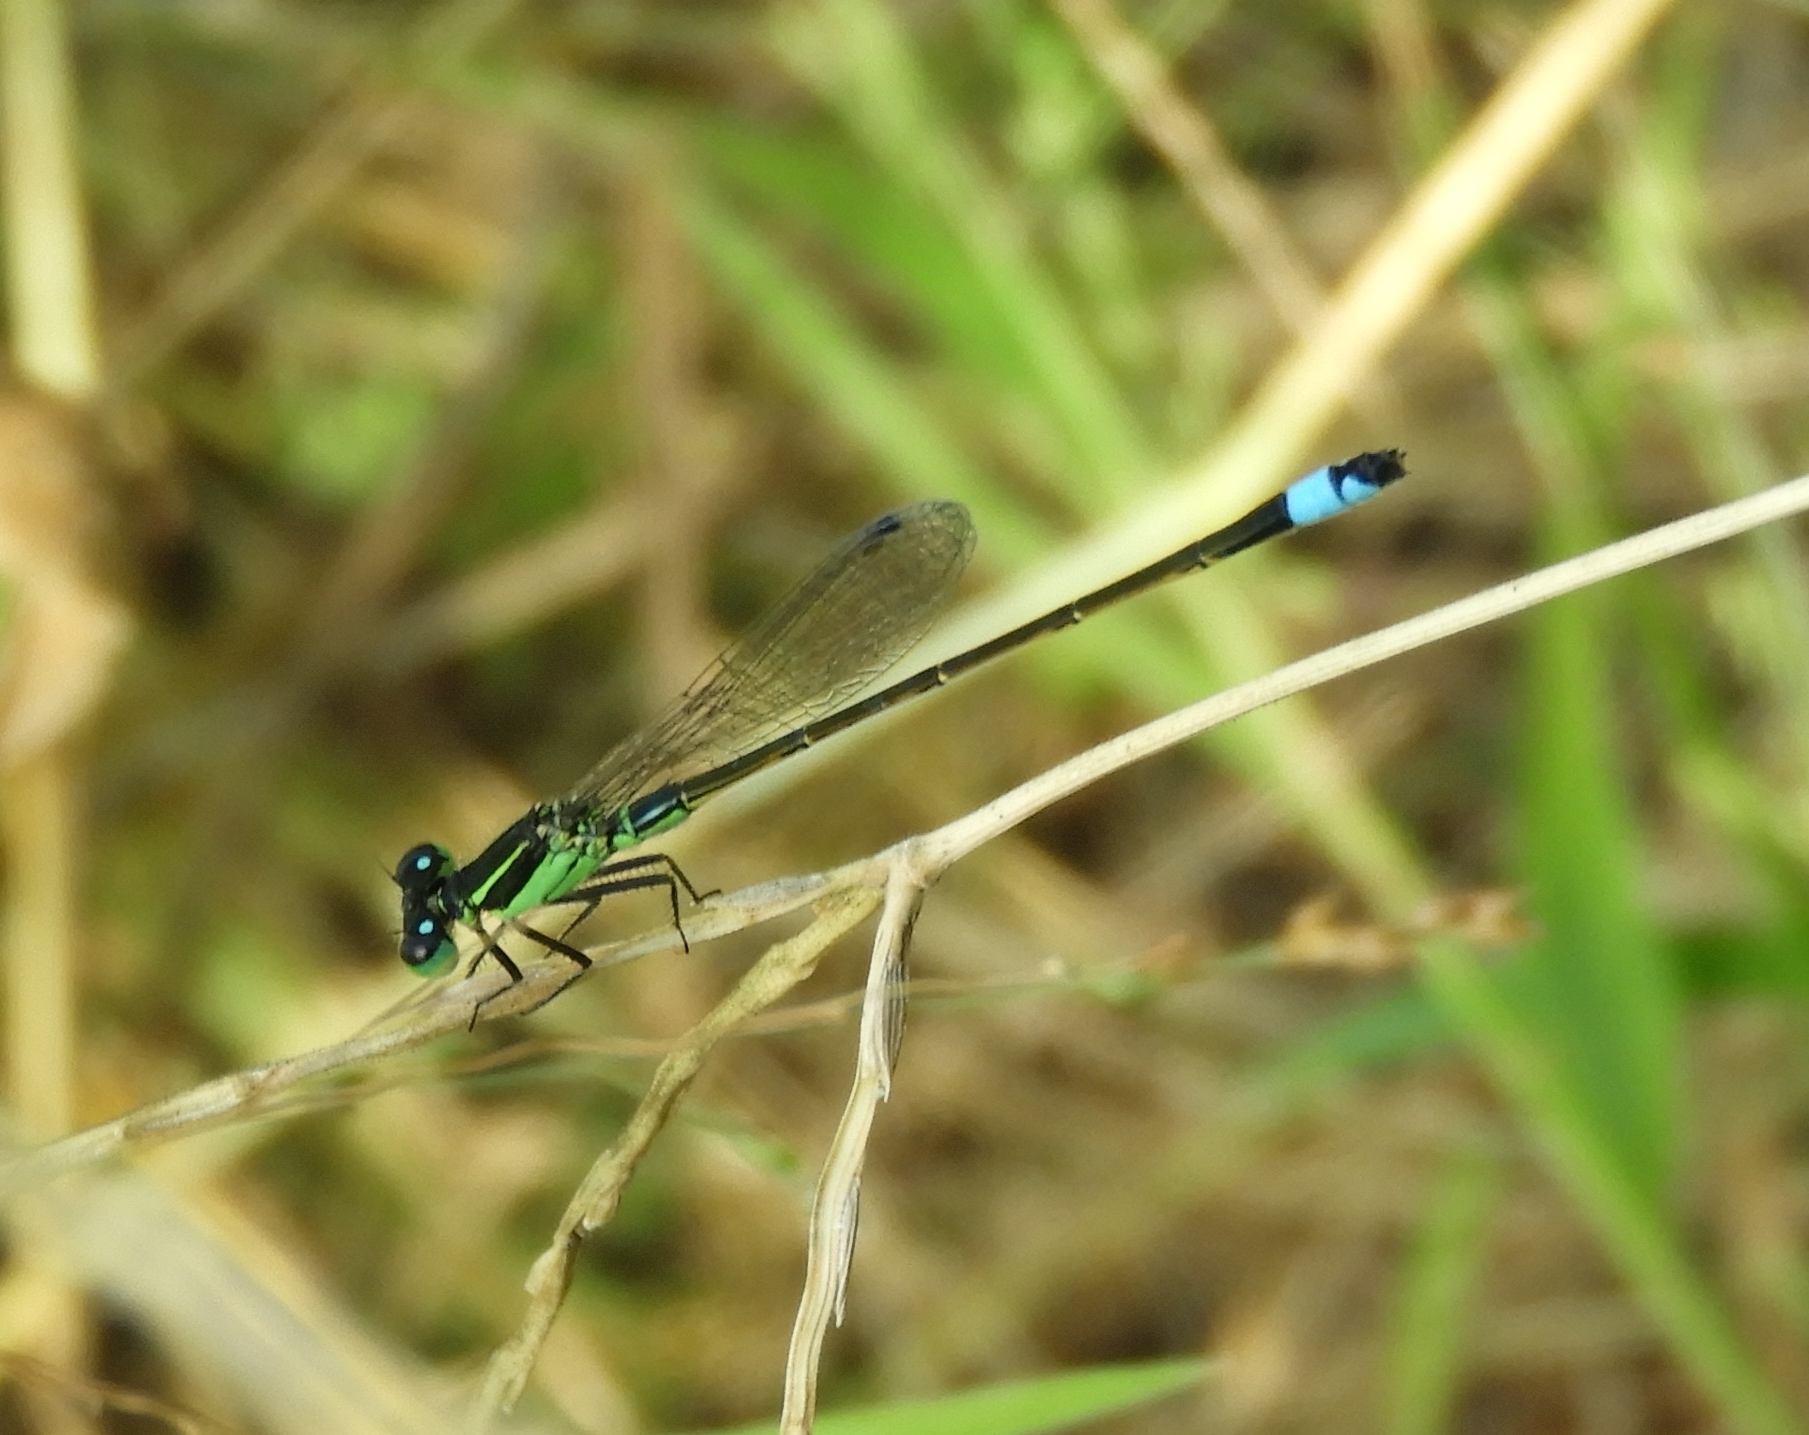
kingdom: Animalia
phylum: Arthropoda
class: Insecta
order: Odonata
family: Coenagrionidae
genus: Ischnura
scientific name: Ischnura ramburii
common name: Rambur's forktail
